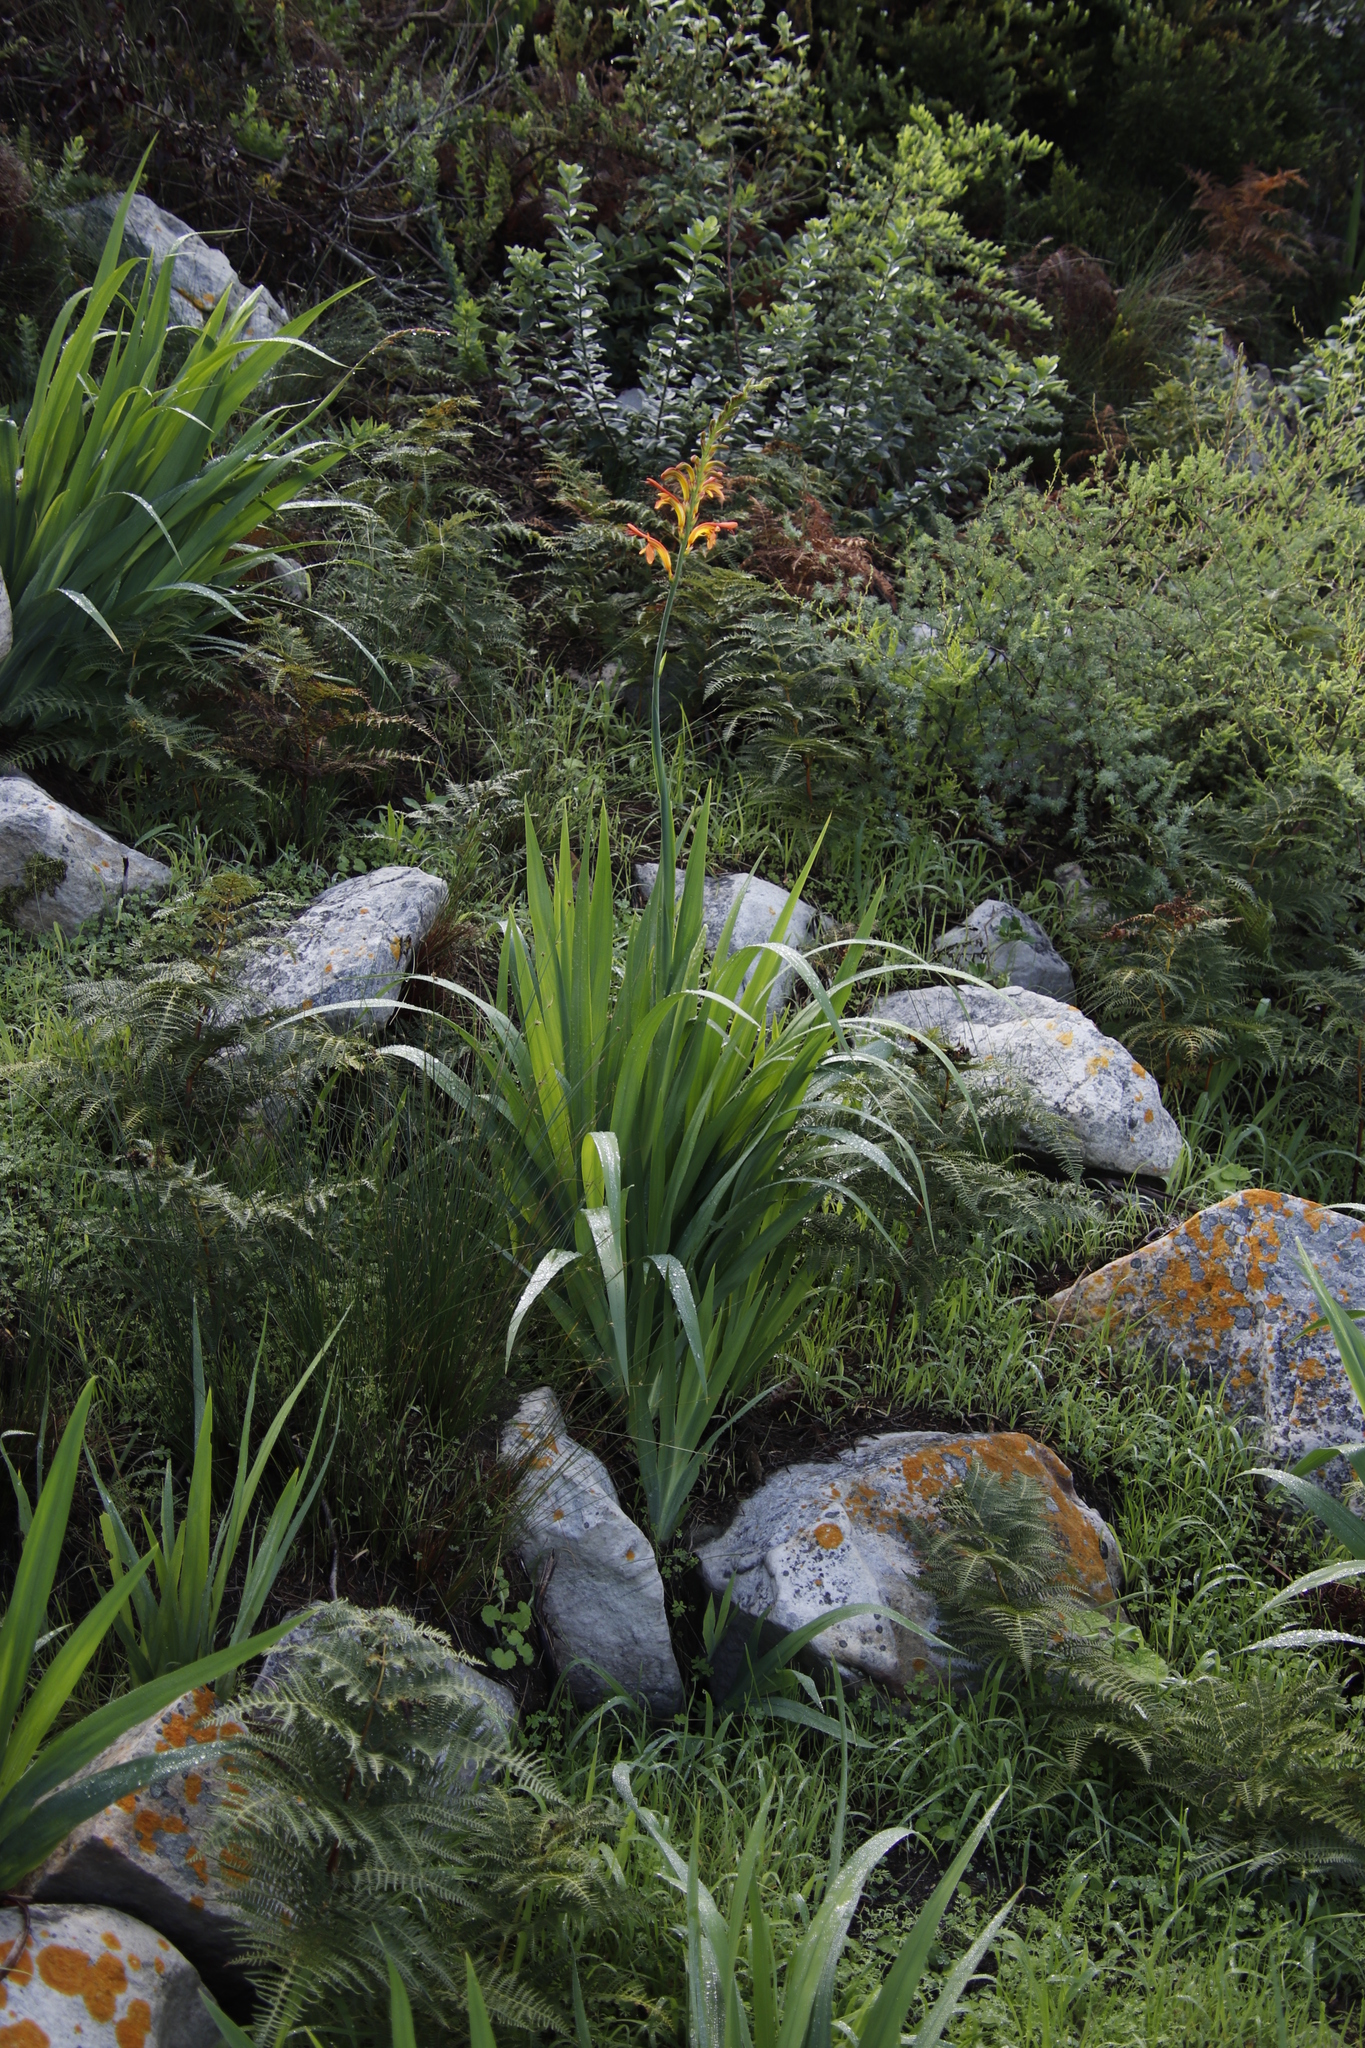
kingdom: Plantae
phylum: Tracheophyta
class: Liliopsida
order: Asparagales
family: Iridaceae
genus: Chasmanthe
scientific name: Chasmanthe floribunda
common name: African cornflag
